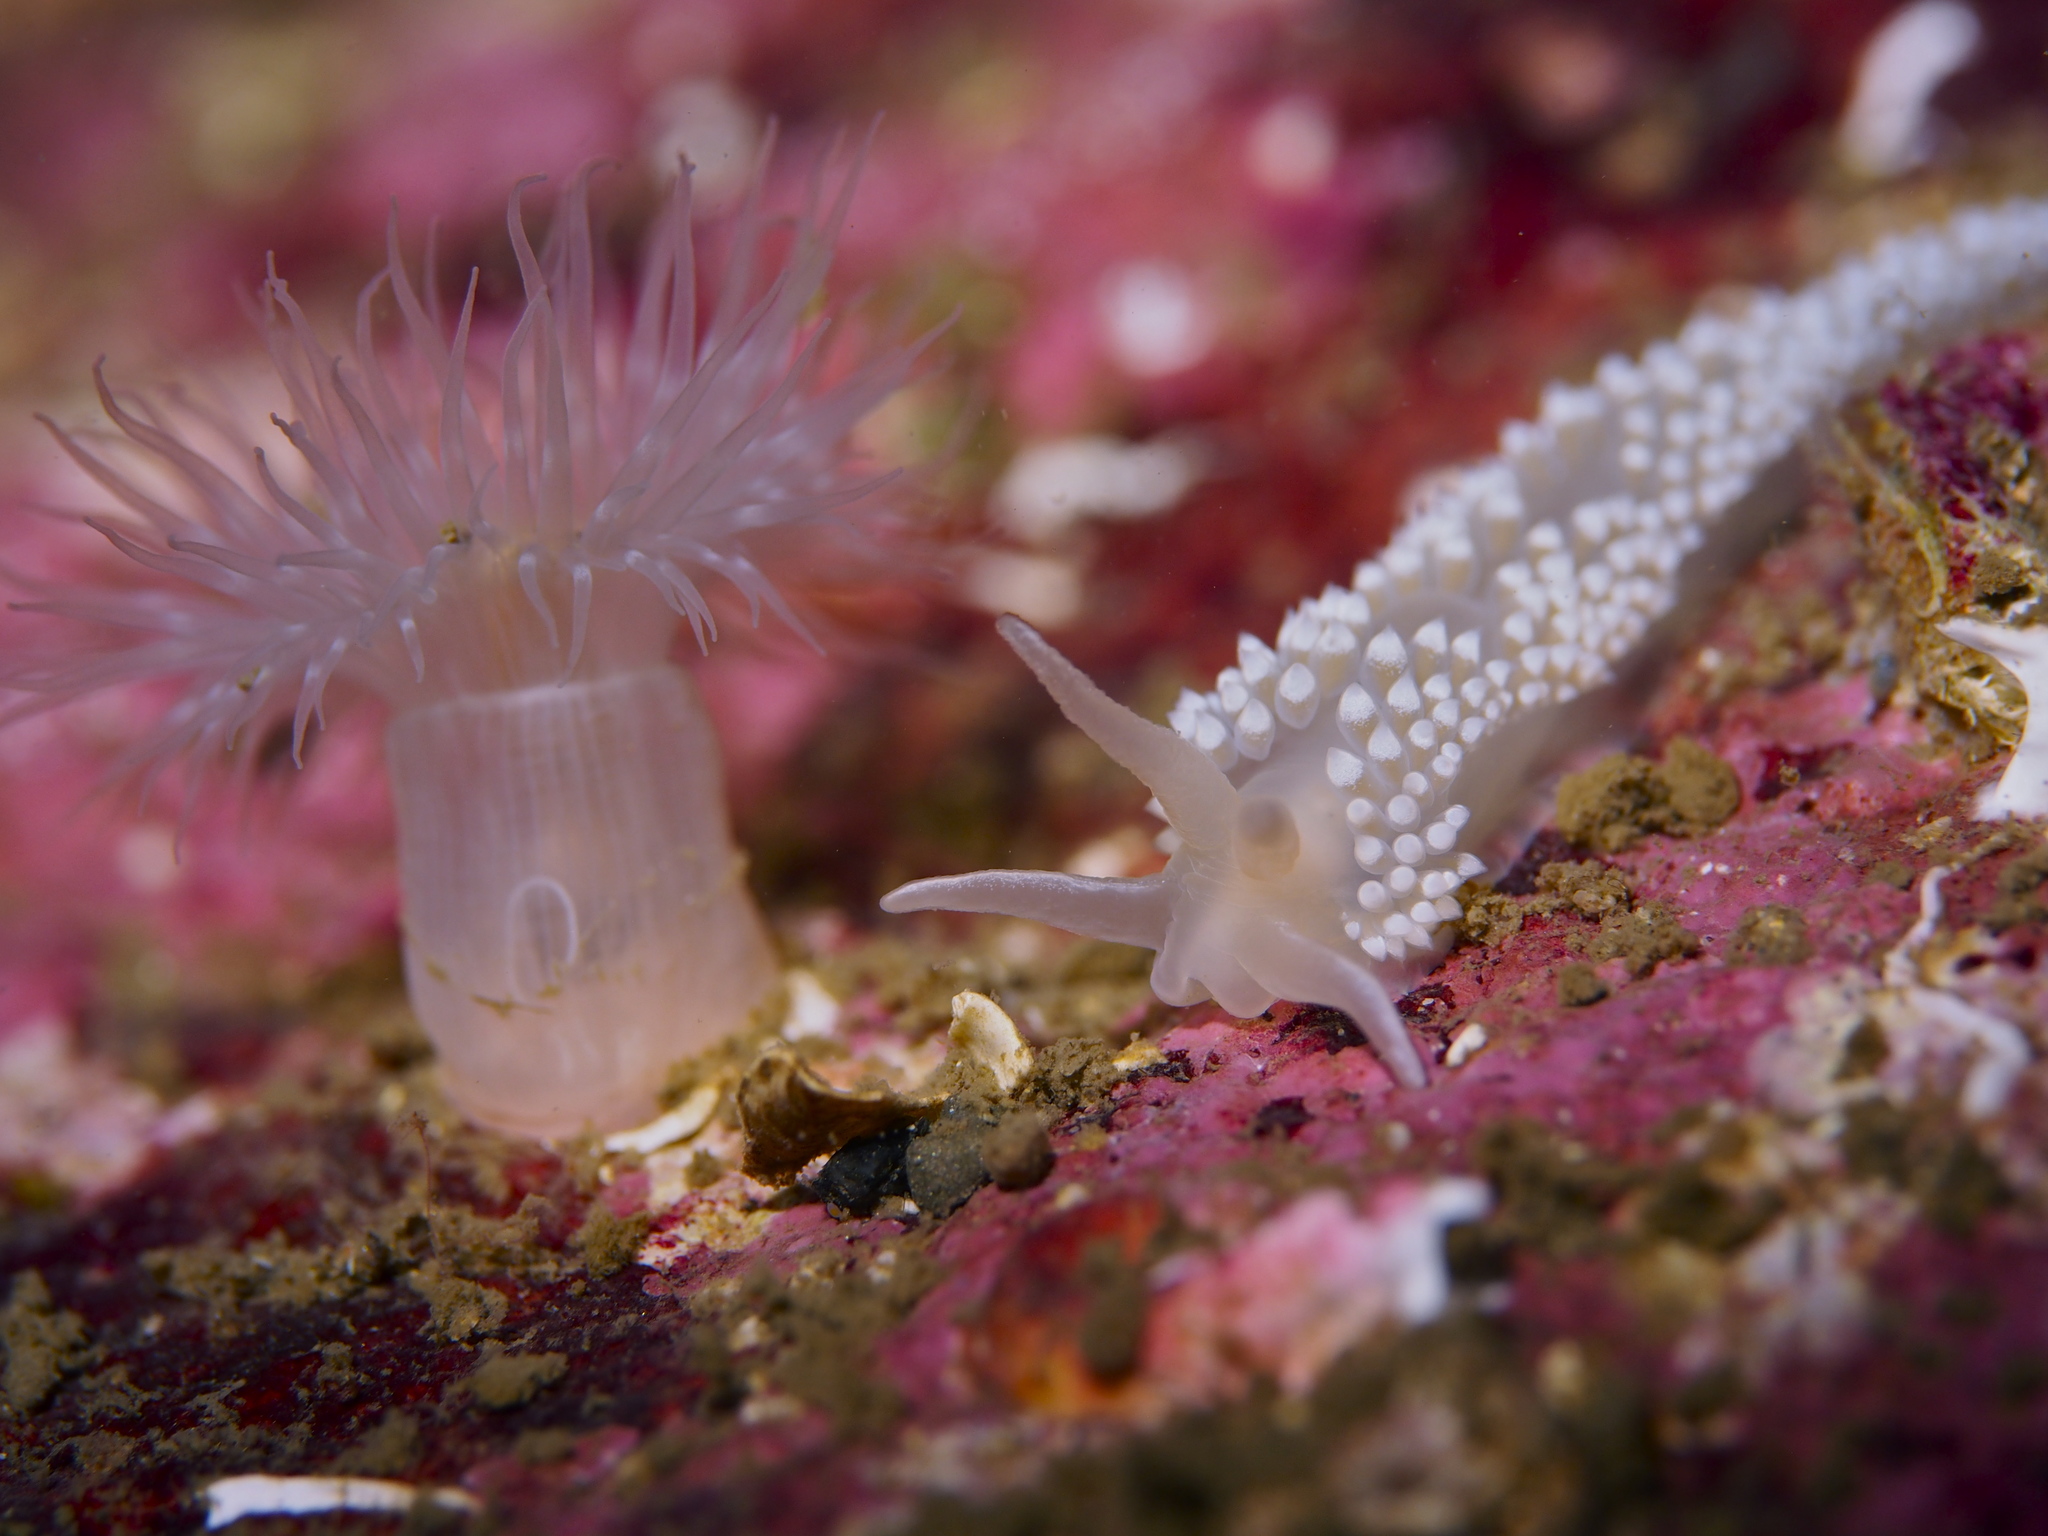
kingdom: Animalia
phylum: Mollusca
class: Gastropoda
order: Nudibranchia
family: Coryphellidae
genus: Coryphella
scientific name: Coryphella verrucosa
